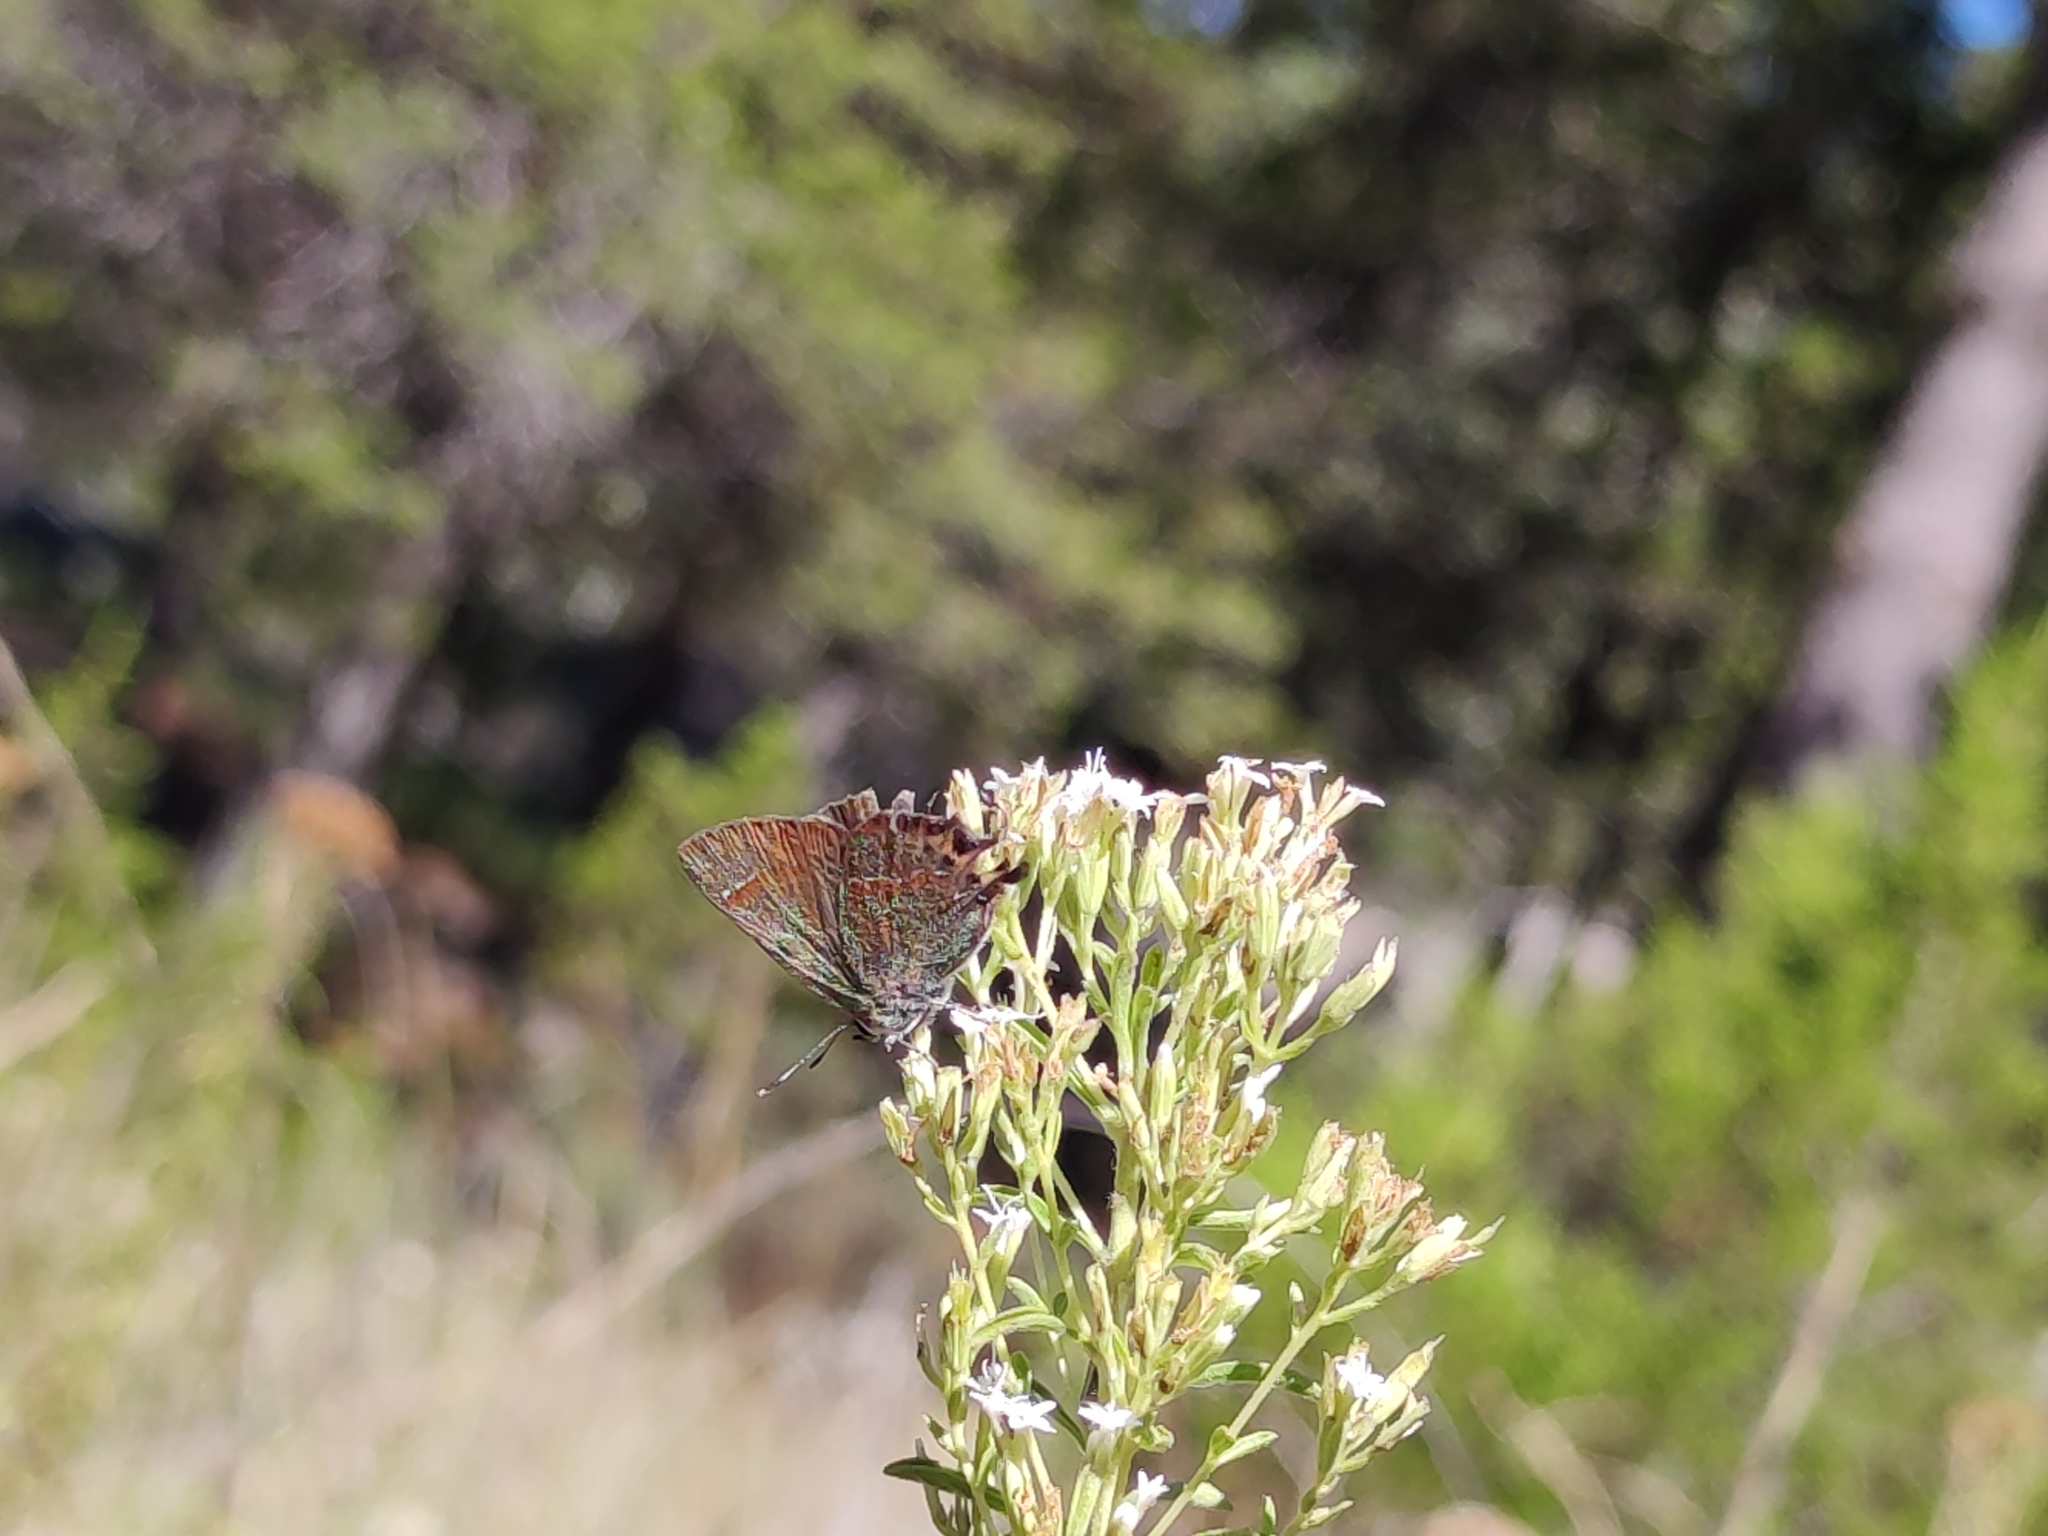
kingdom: Animalia
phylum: Arthropoda
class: Insecta
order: Lepidoptera
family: Lycaenidae
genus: Callophrys
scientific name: Callophrys
